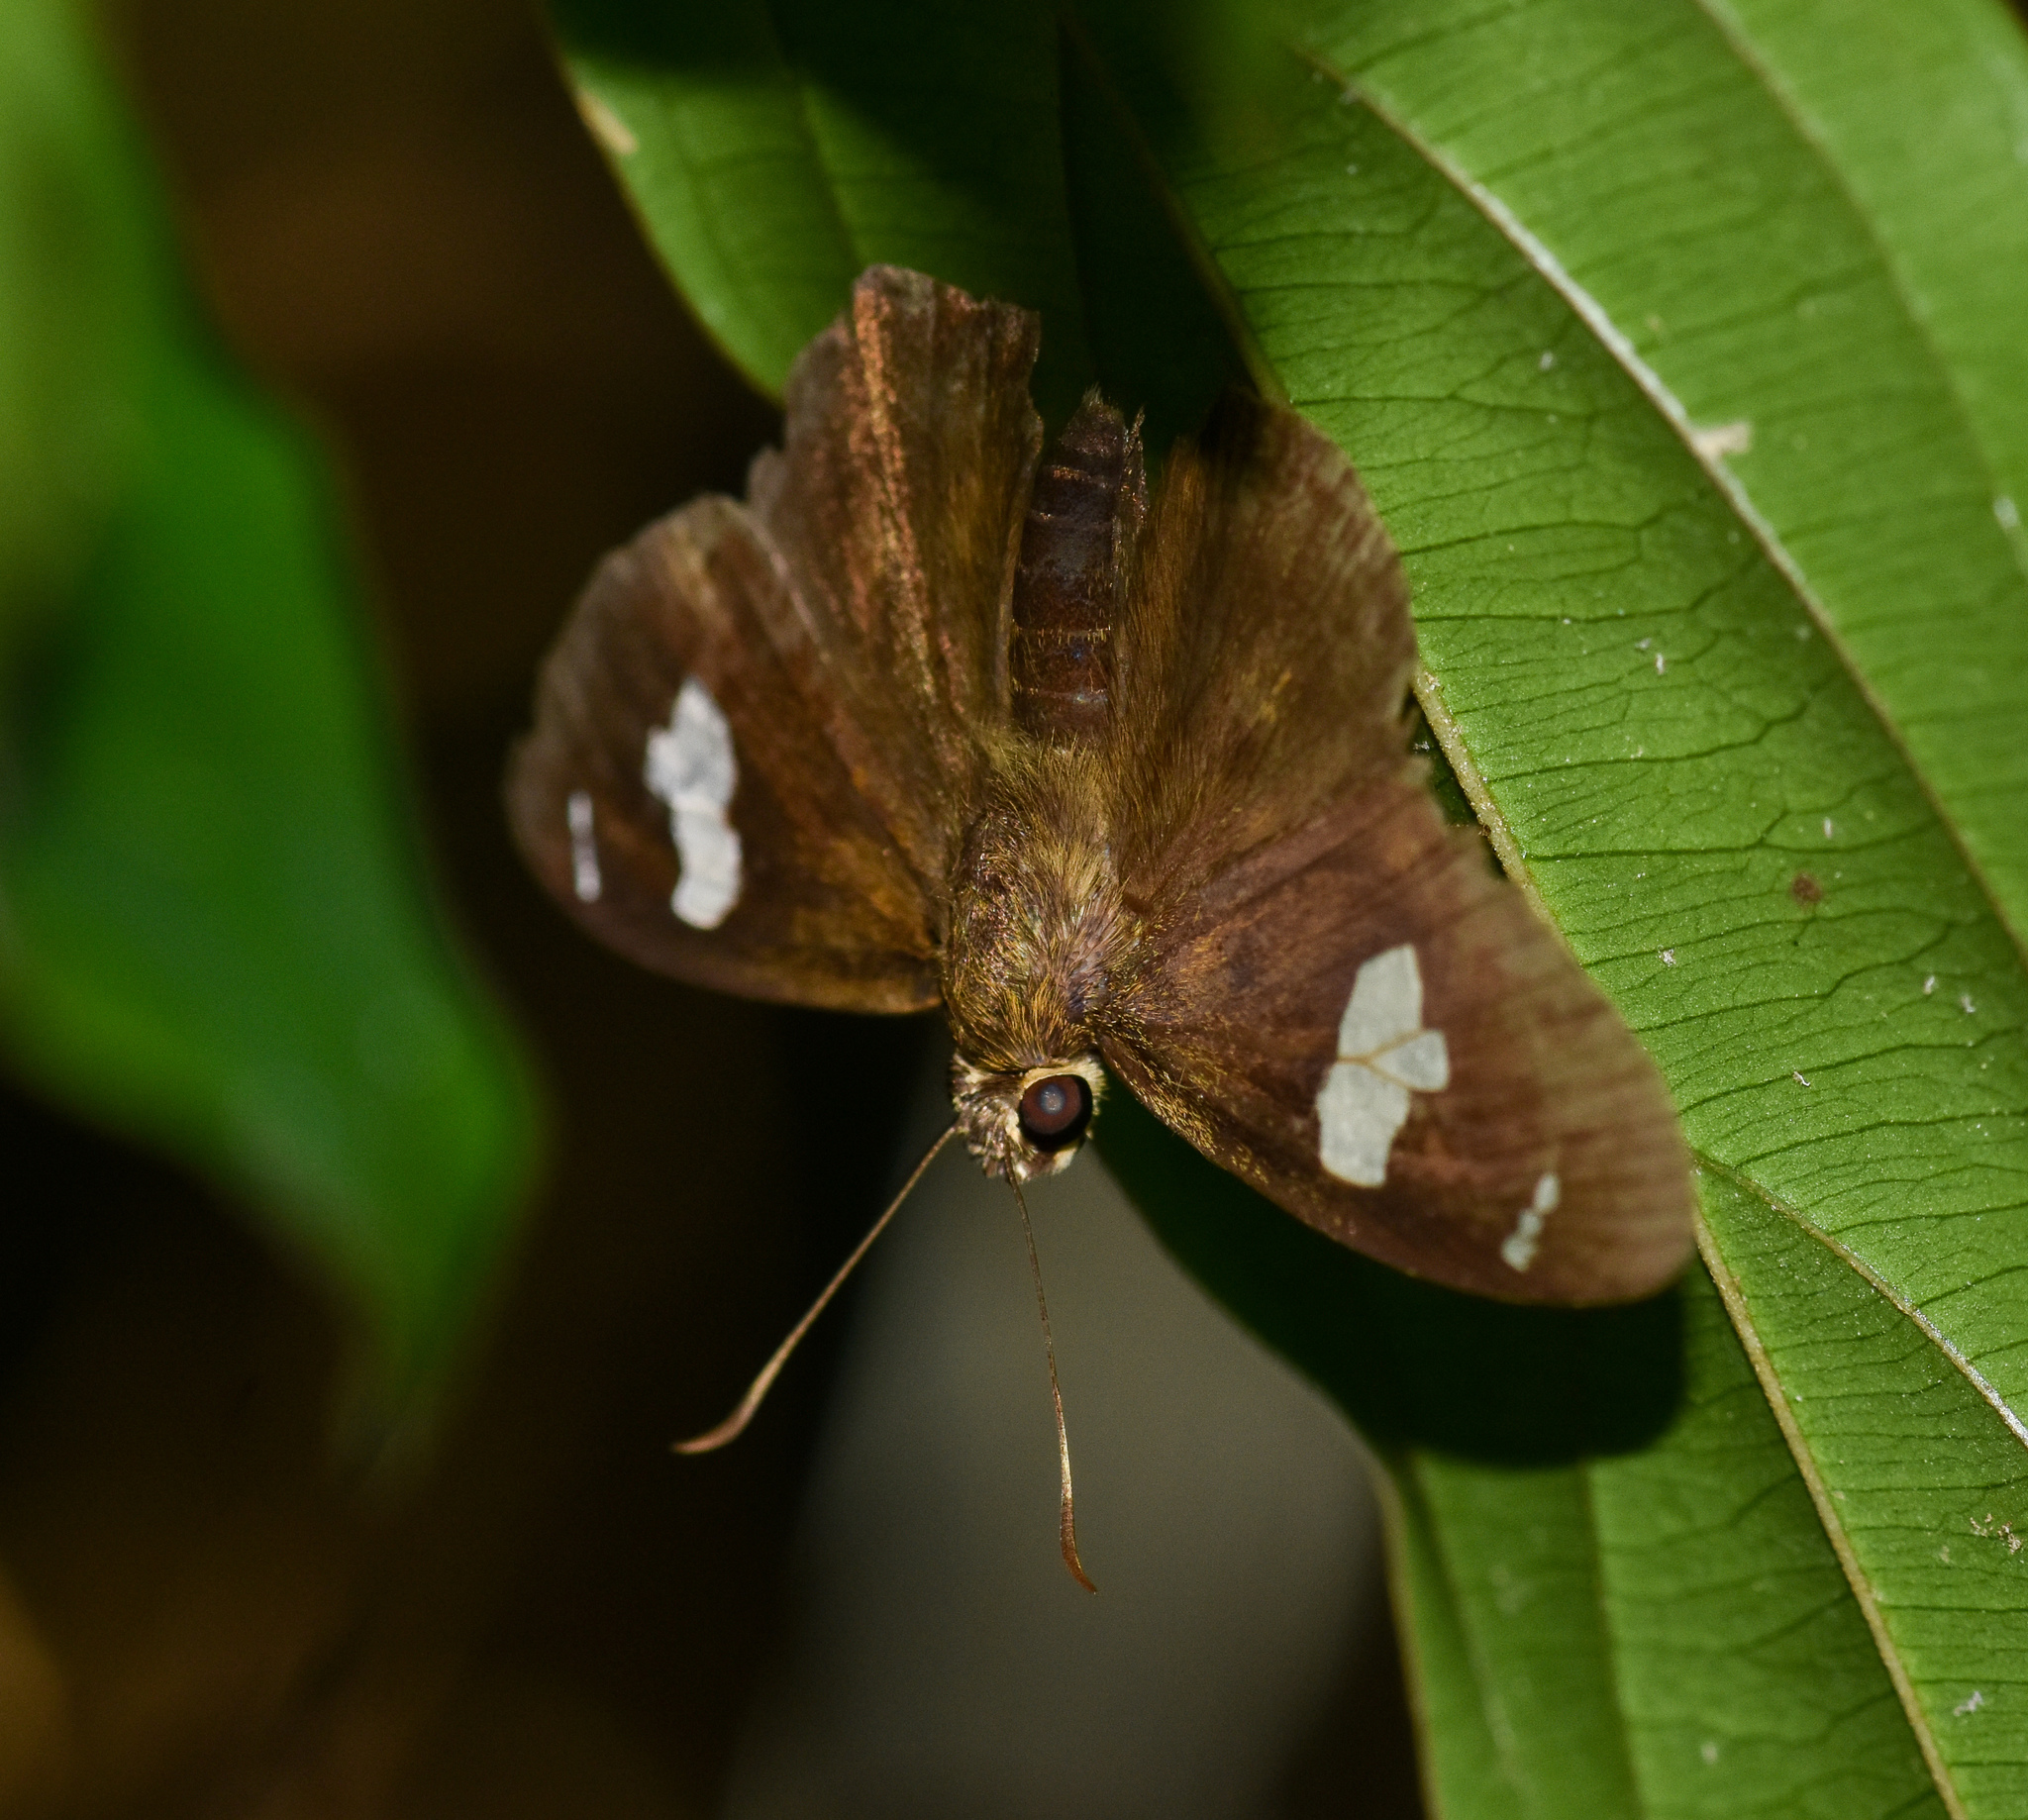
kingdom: Animalia
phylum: Arthropoda
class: Insecta
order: Lepidoptera
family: Hesperiidae
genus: Celaenorrhinus
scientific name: Celaenorrhinus asmara
